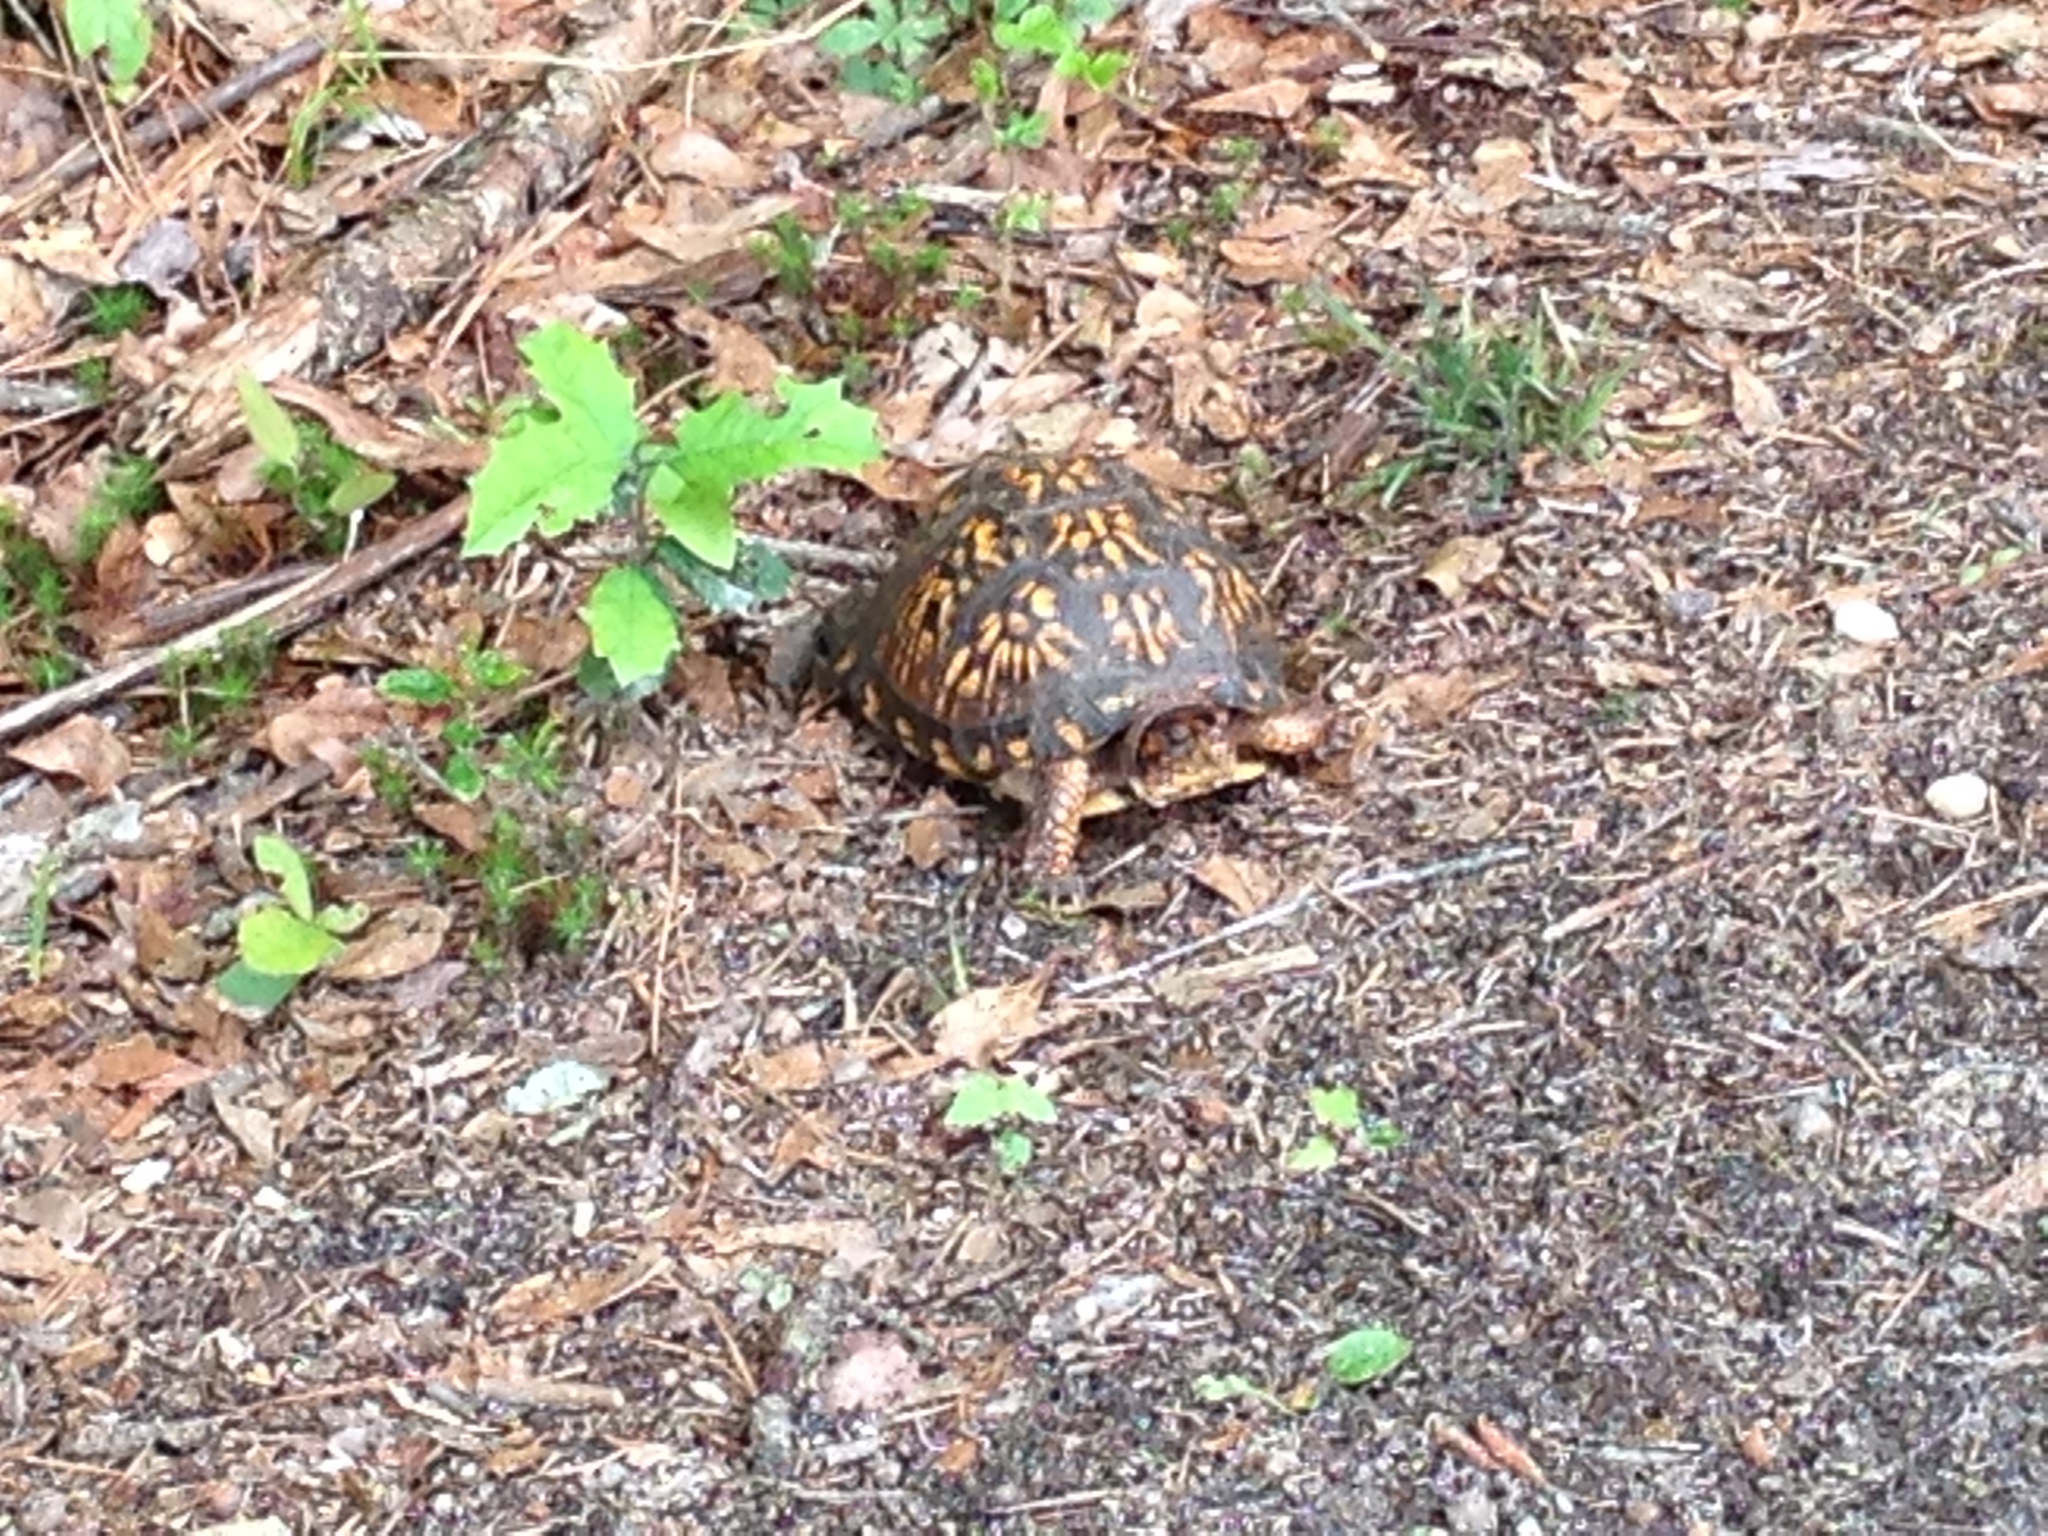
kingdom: Animalia
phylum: Chordata
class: Testudines
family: Emydidae
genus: Terrapene
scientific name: Terrapene carolina
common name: Common box turtle
